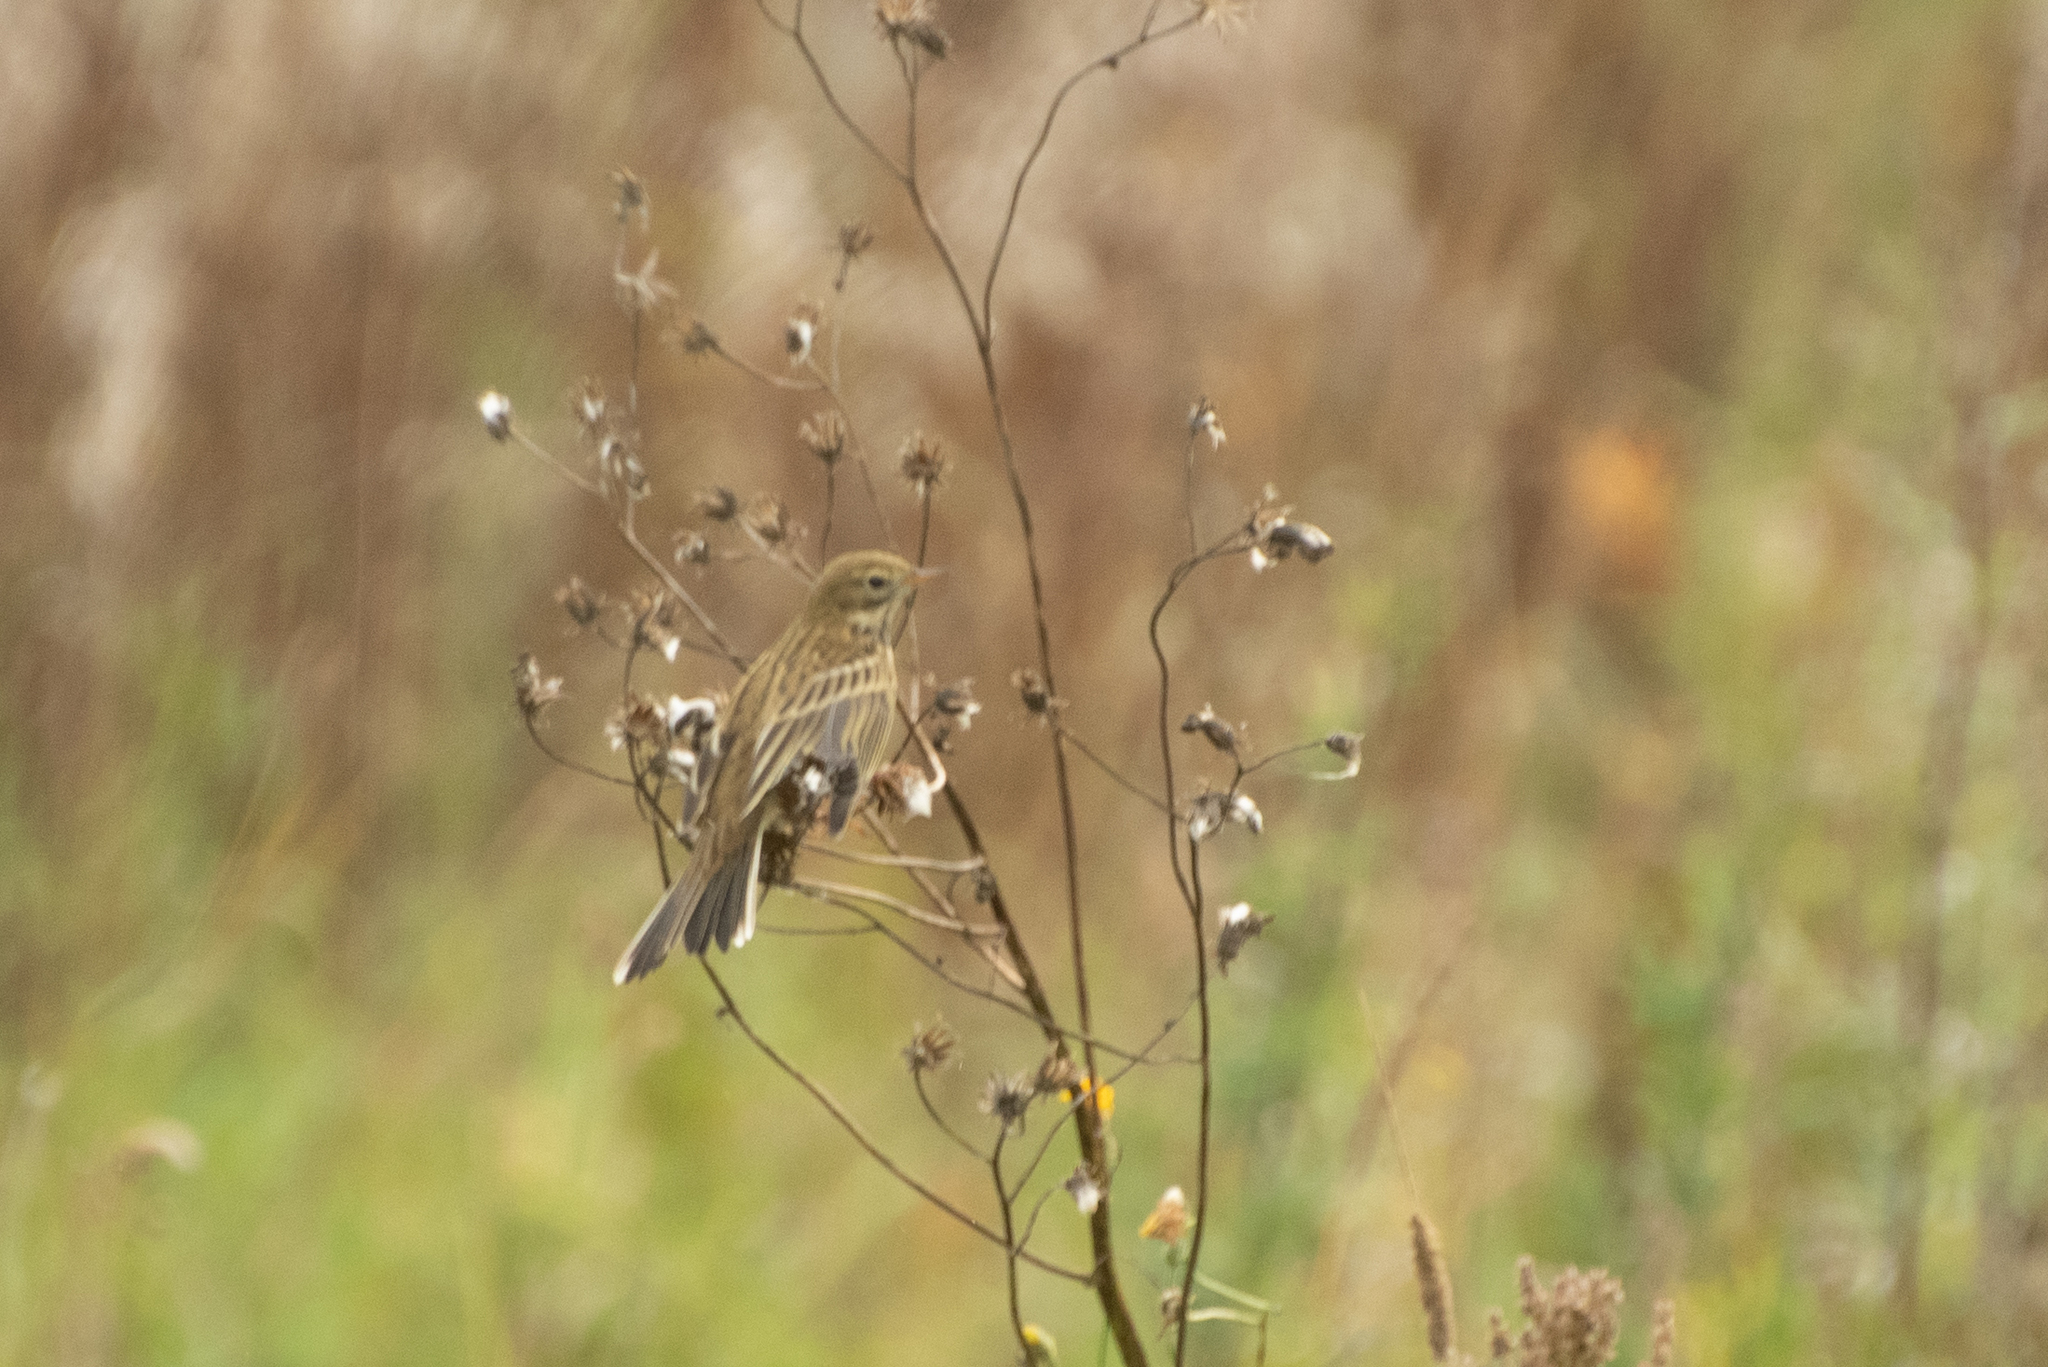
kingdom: Animalia
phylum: Chordata
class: Aves
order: Passeriformes
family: Motacillidae
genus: Anthus
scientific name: Anthus pratensis
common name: Meadow pipit
